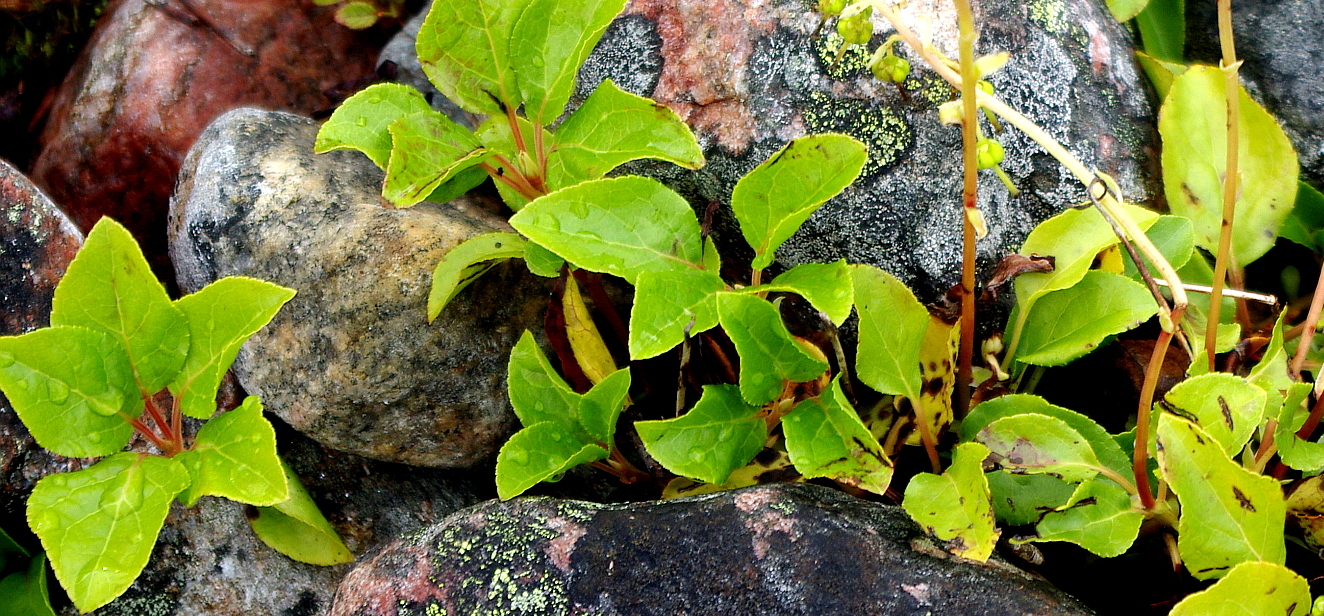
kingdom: Plantae
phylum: Tracheophyta
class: Magnoliopsida
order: Ericales
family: Ericaceae
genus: Orthilia
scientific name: Orthilia secunda
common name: One-sided orthilia
